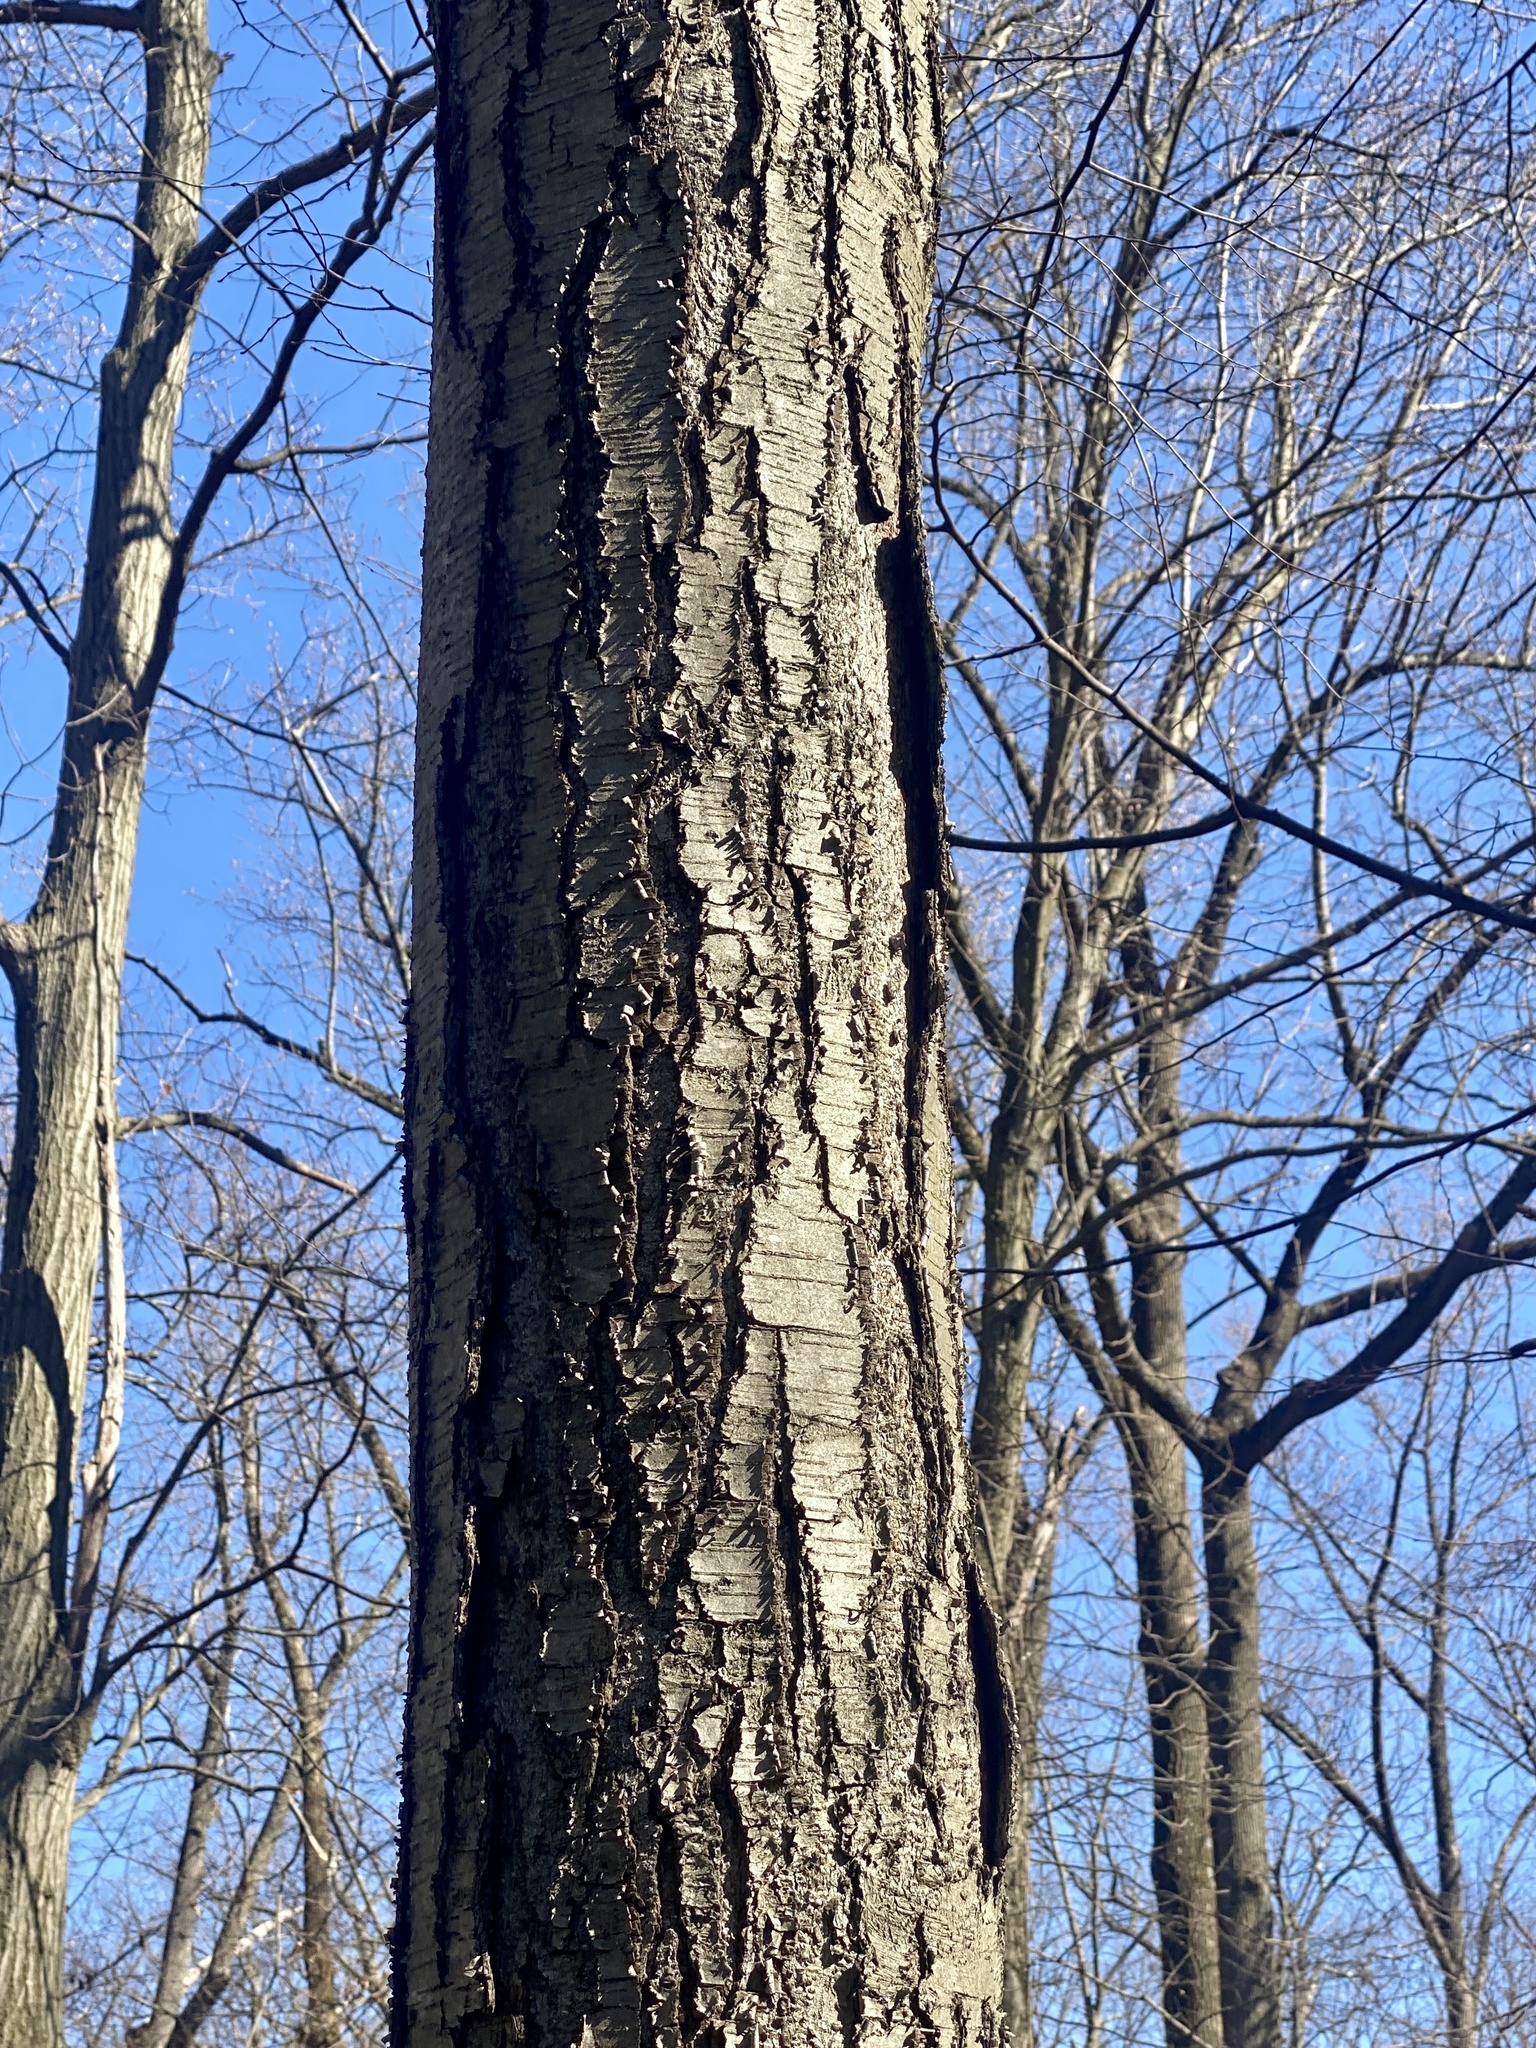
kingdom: Plantae
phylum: Tracheophyta
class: Magnoliopsida
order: Fagales
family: Betulaceae
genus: Betula
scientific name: Betula lenta
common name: Black birch
